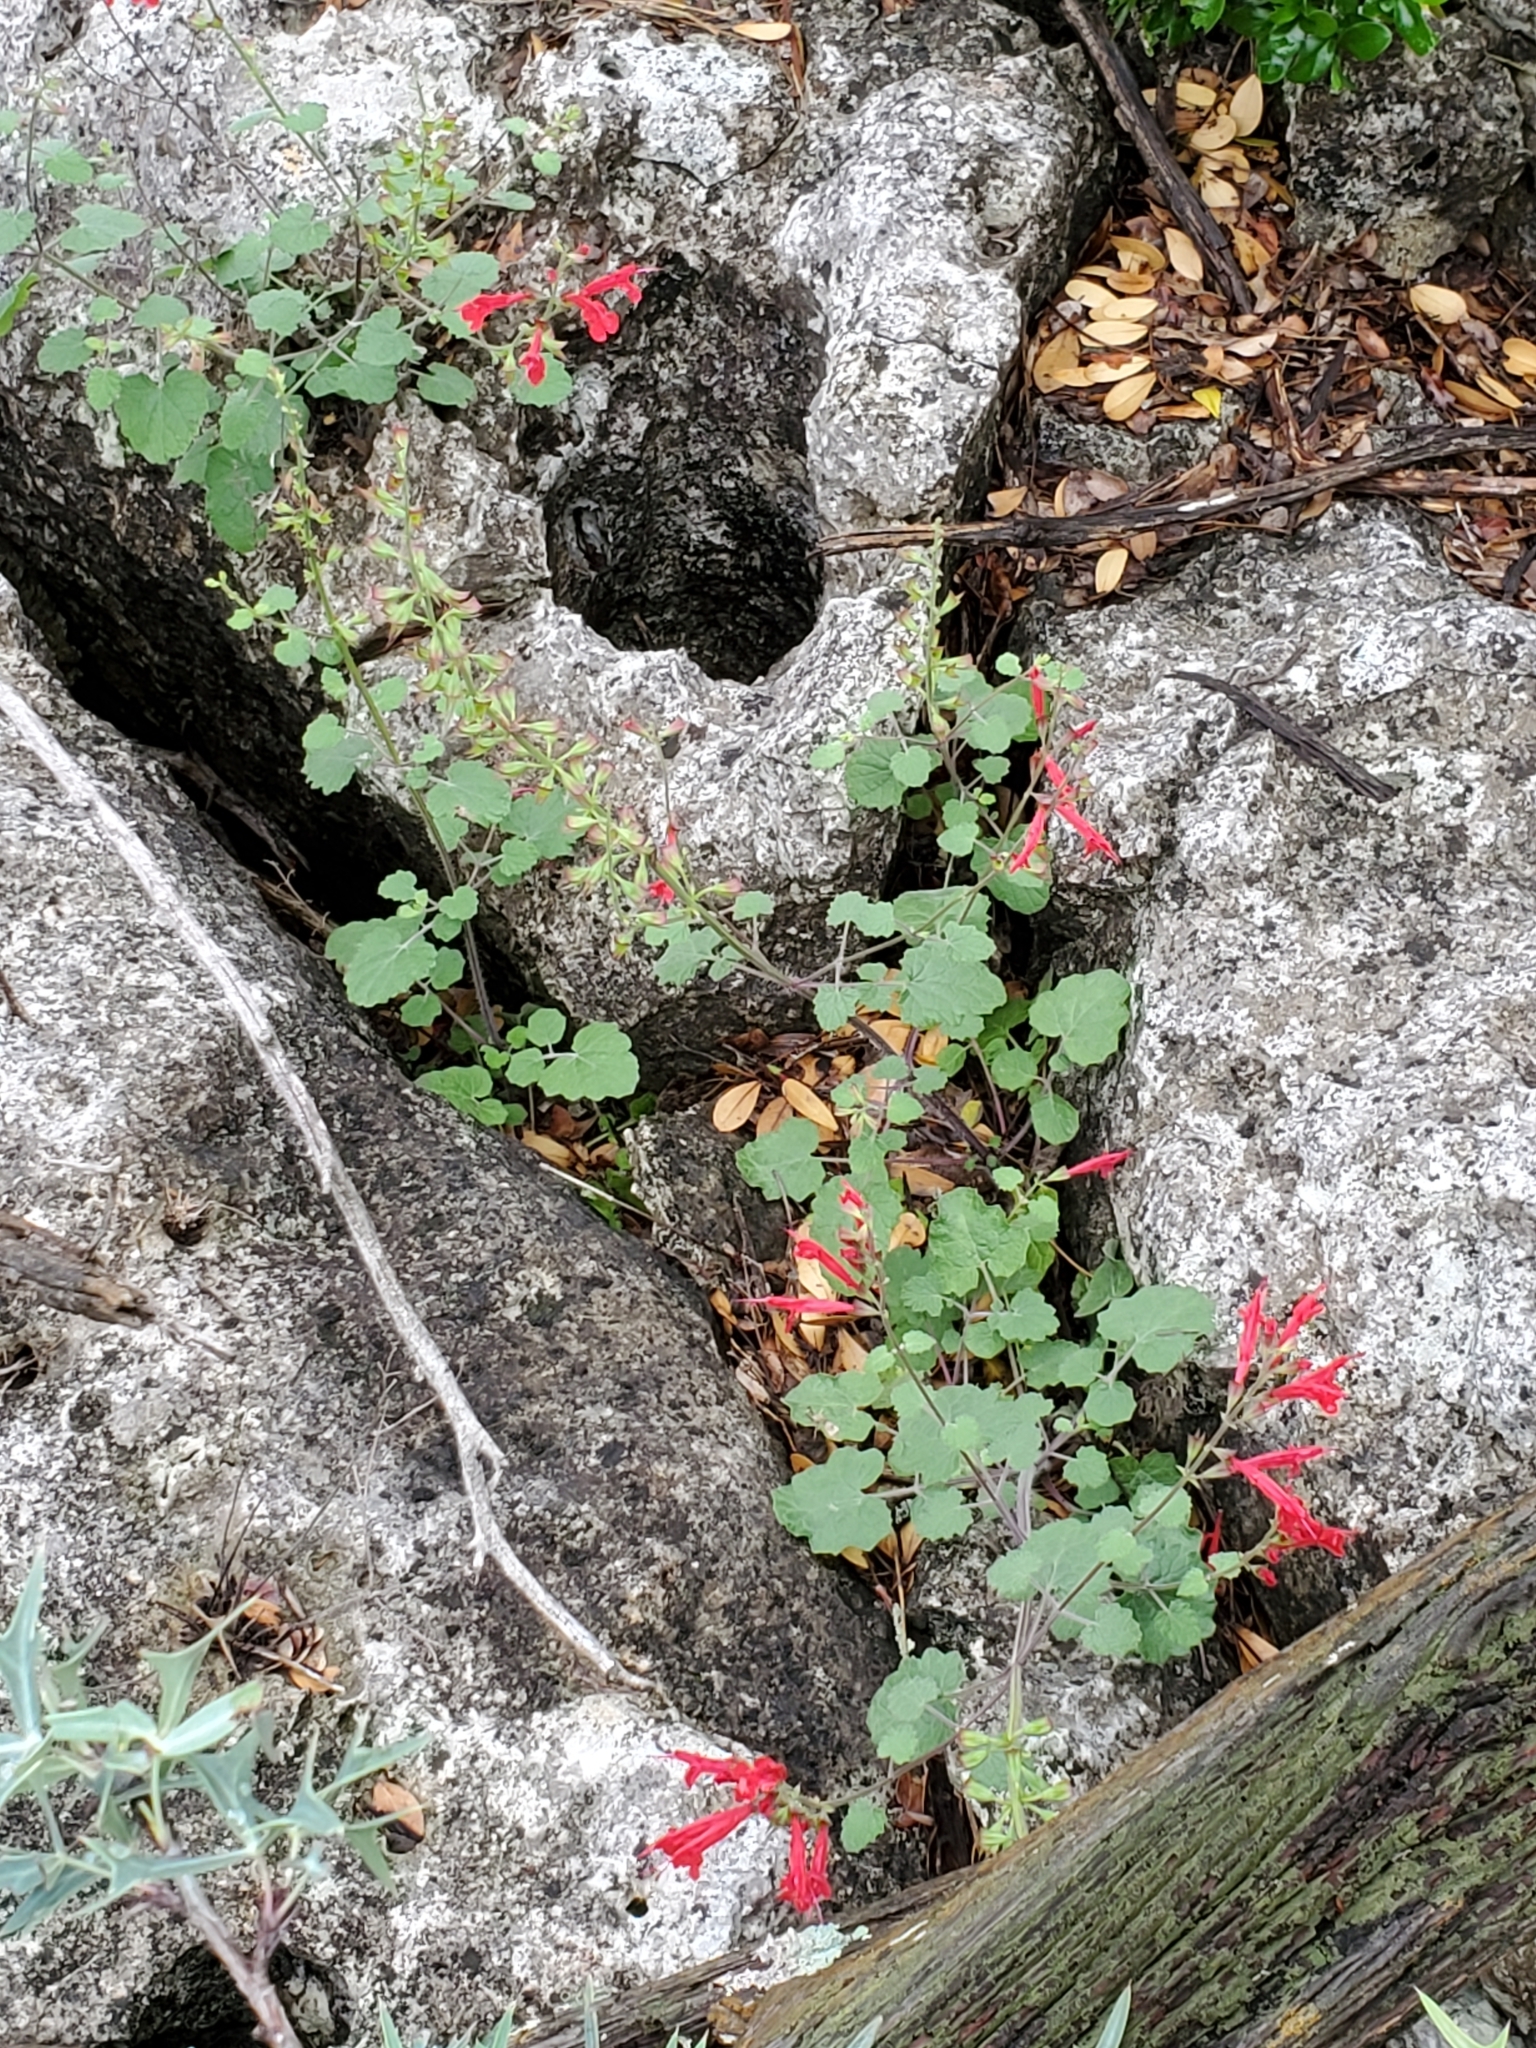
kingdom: Plantae
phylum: Tracheophyta
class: Magnoliopsida
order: Lamiales
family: Lamiaceae
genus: Salvia
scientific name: Salvia roemeriana
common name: Cedar sage
